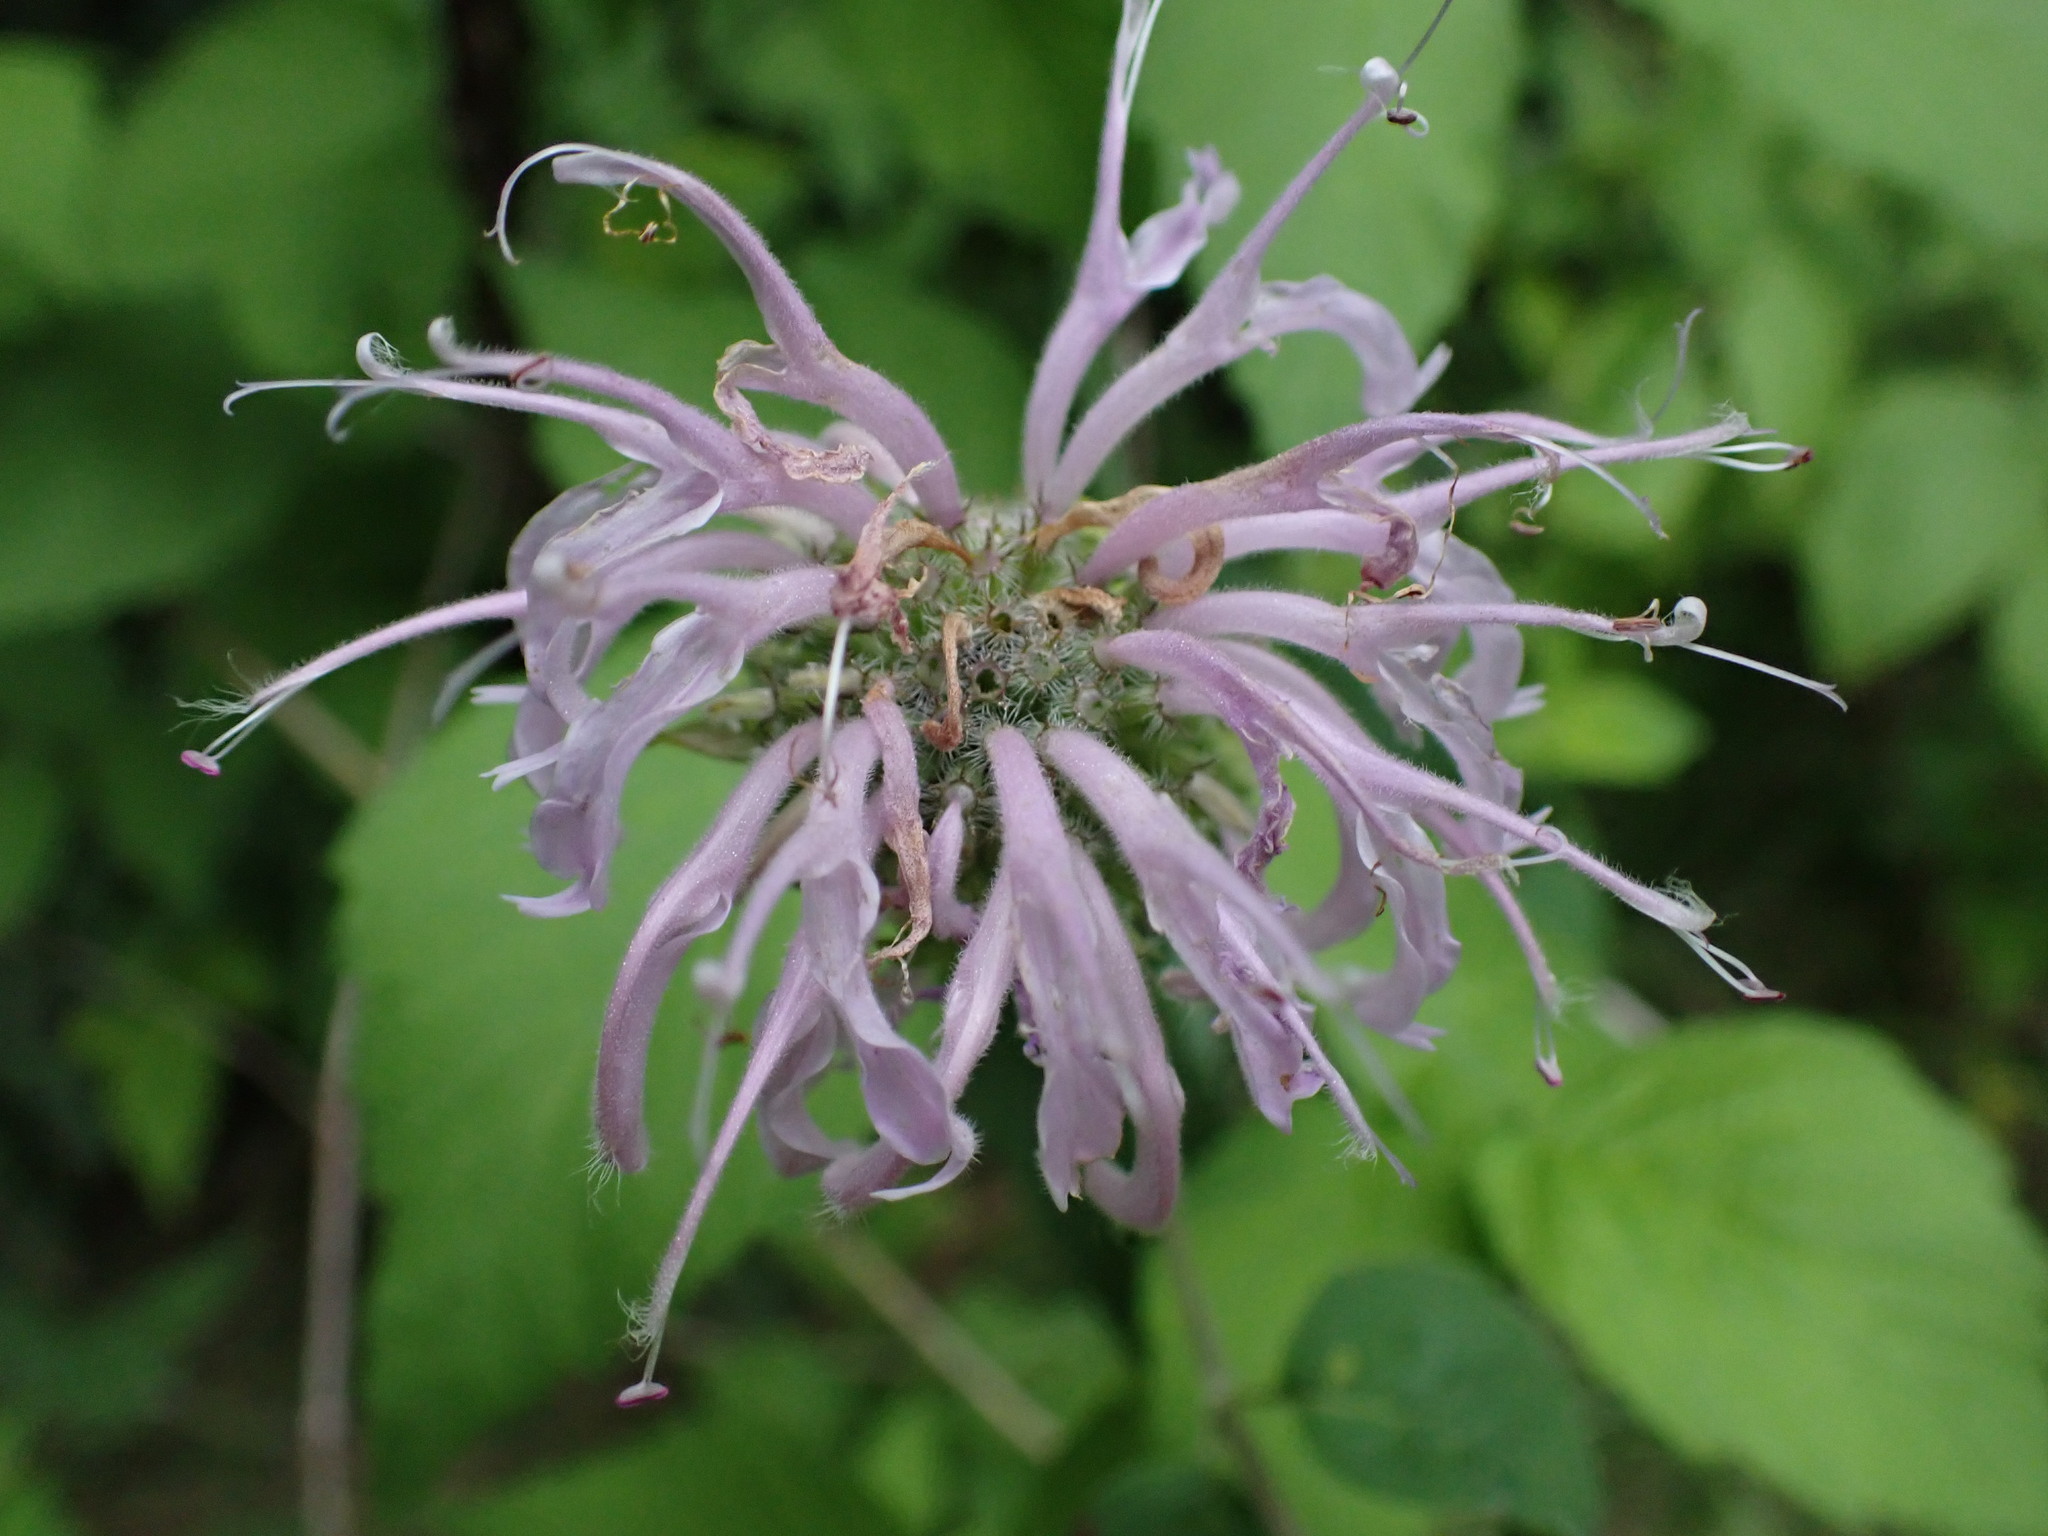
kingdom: Plantae
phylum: Tracheophyta
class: Magnoliopsida
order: Lamiales
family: Lamiaceae
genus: Monarda
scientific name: Monarda fistulosa
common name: Purple beebalm
